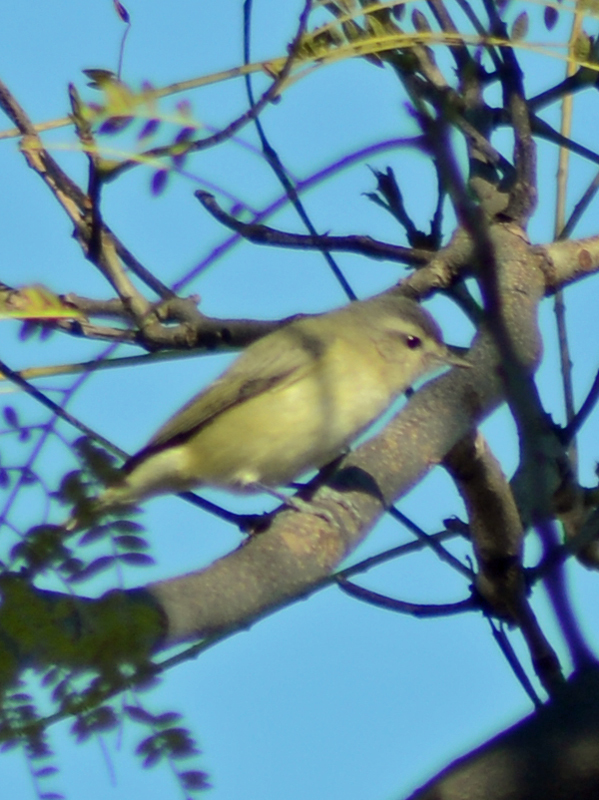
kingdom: Animalia
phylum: Chordata
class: Aves
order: Passeriformes
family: Vireonidae
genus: Vireo
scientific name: Vireo gilvus
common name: Warbling vireo
